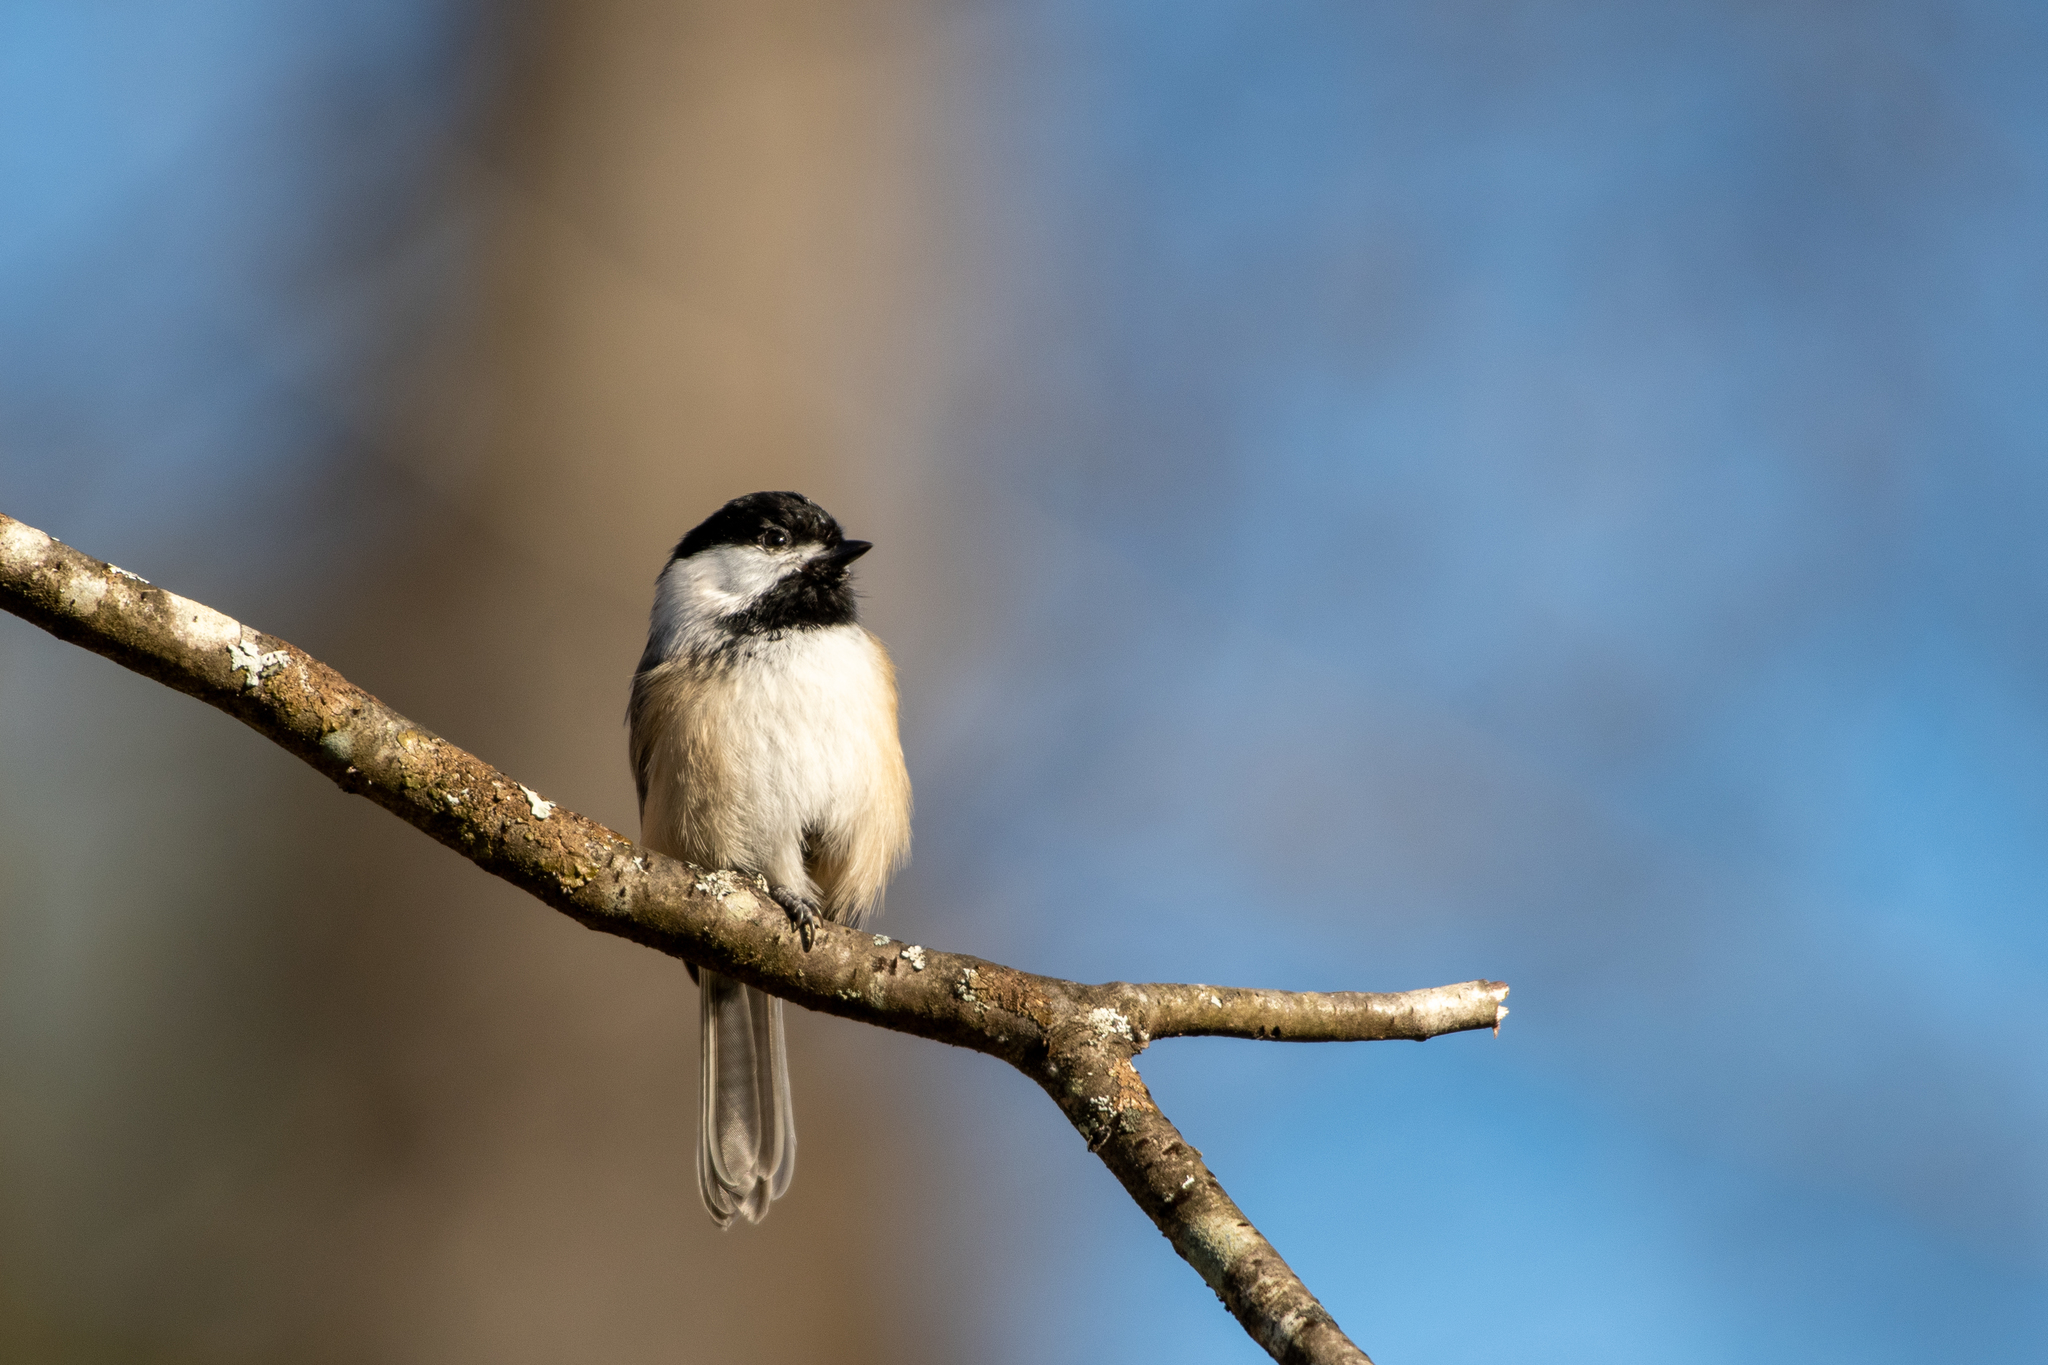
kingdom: Animalia
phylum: Chordata
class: Aves
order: Passeriformes
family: Paridae
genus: Poecile
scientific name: Poecile atricapillus
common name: Black-capped chickadee
